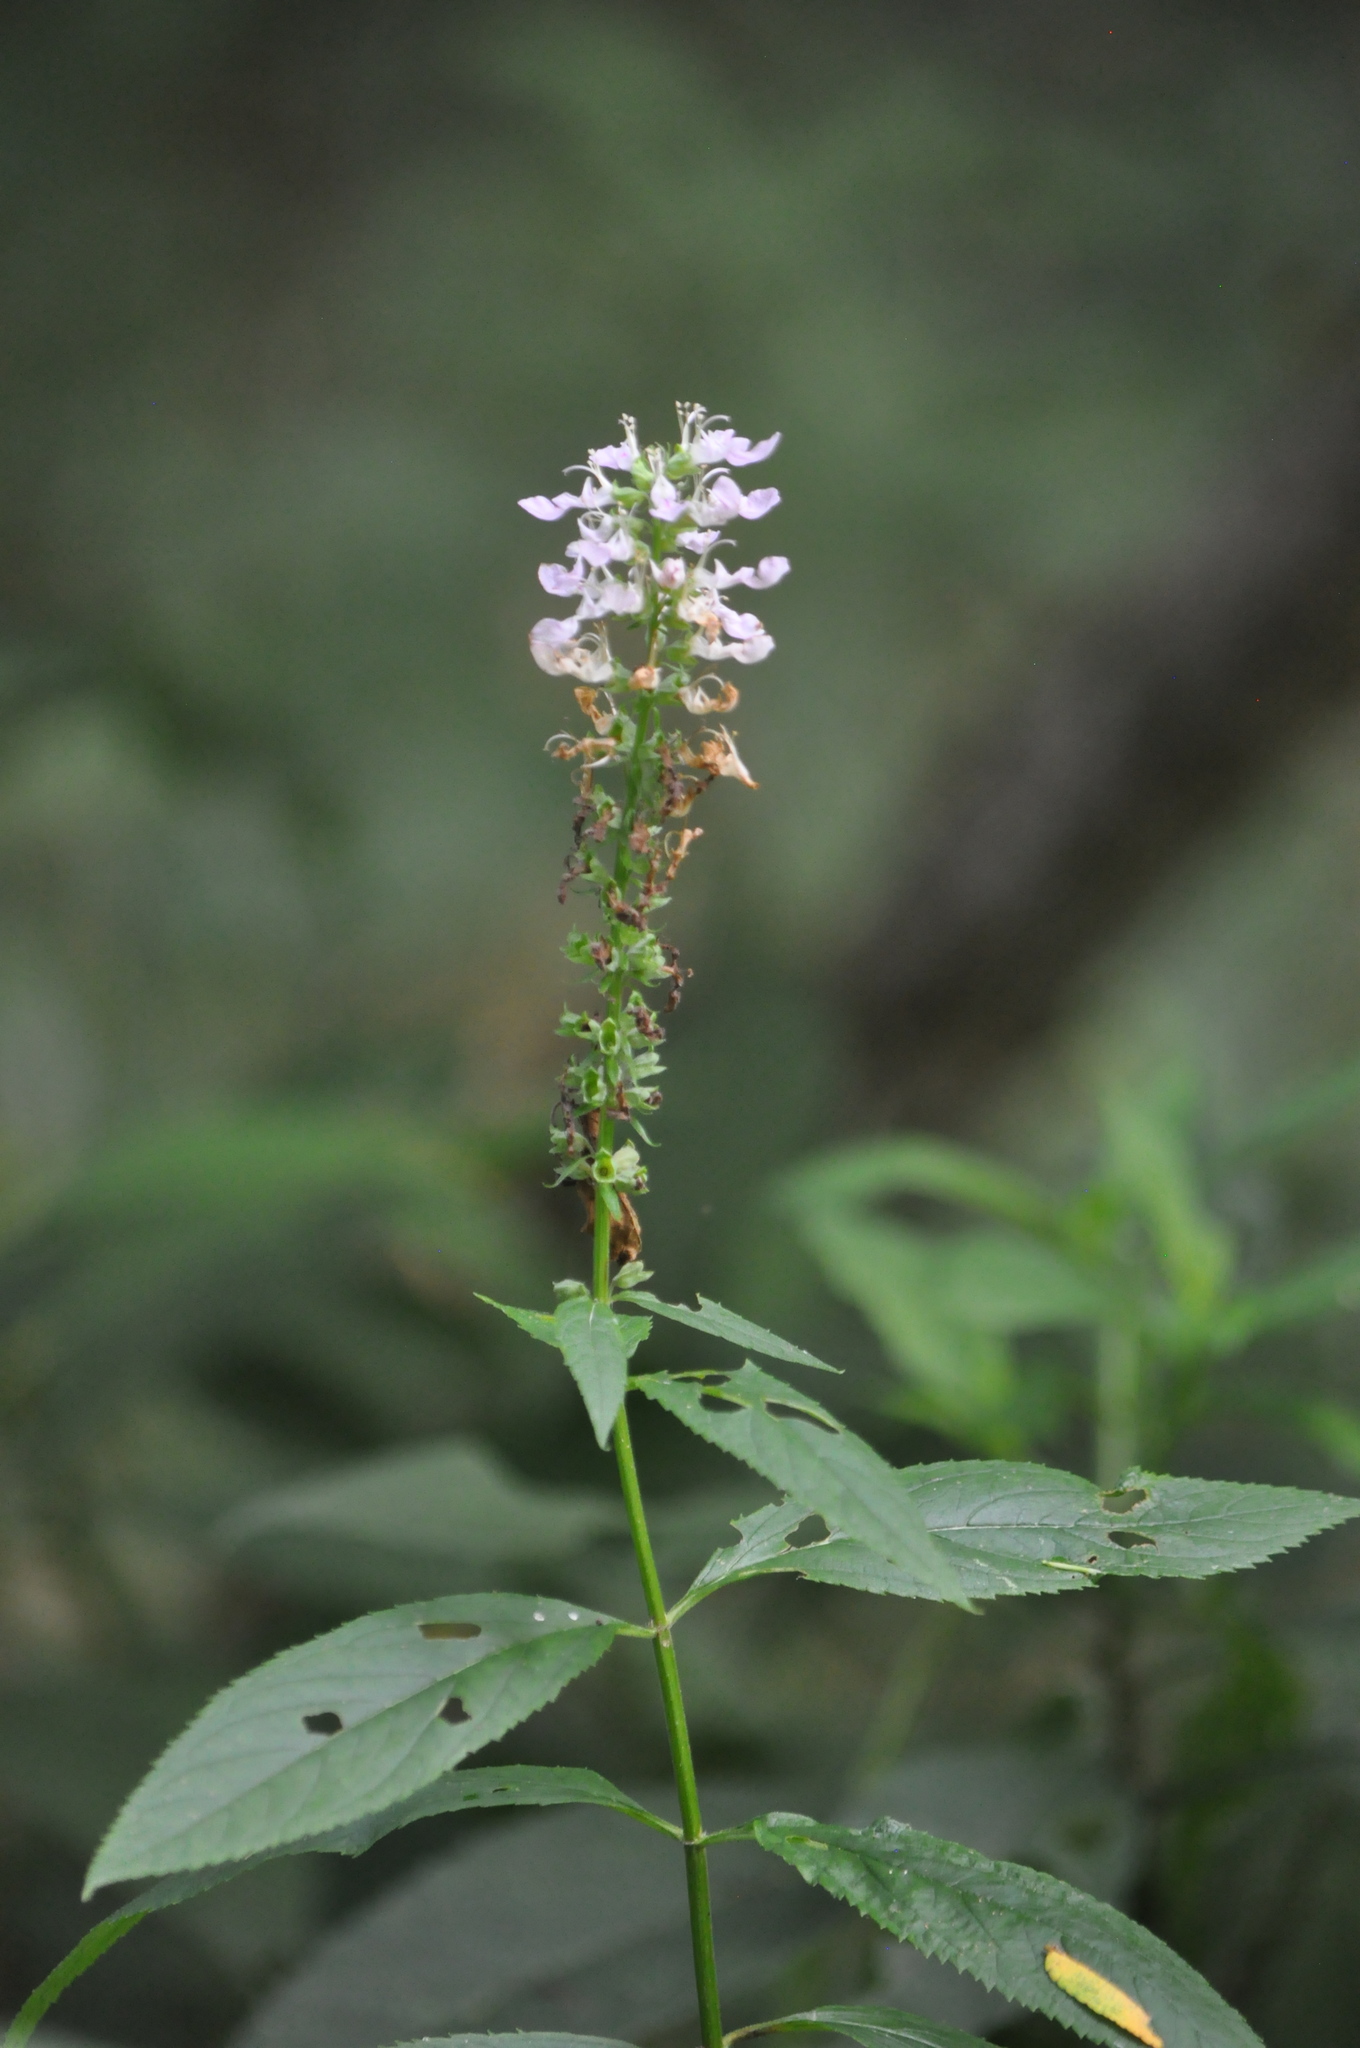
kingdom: Plantae
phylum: Tracheophyta
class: Magnoliopsida
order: Lamiales
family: Lamiaceae
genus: Teucrium
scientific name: Teucrium canadense
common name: American germander
